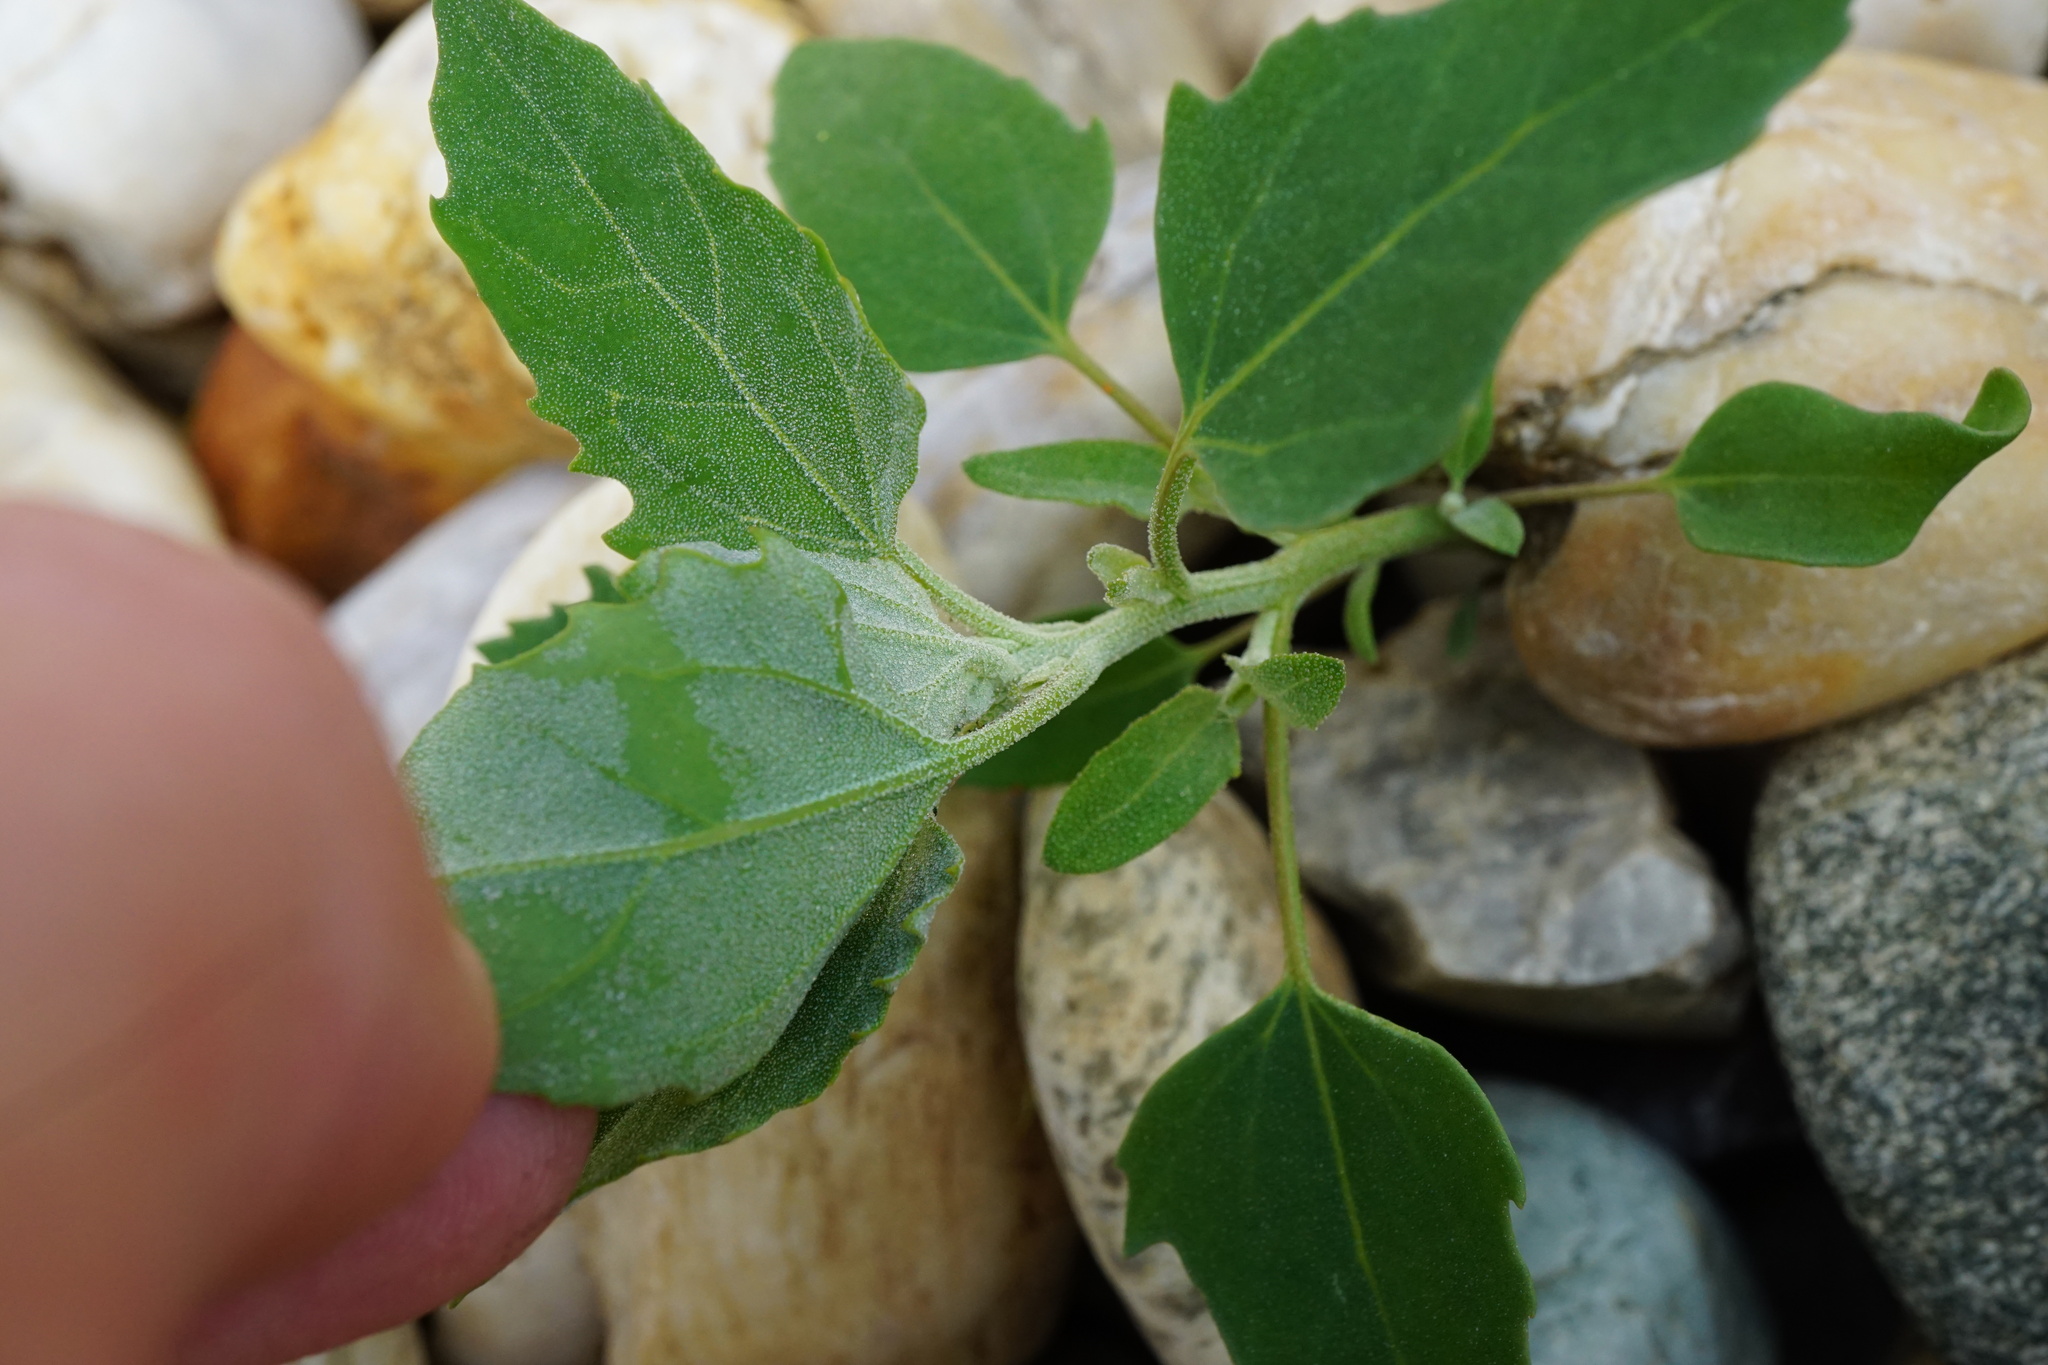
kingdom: Plantae
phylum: Tracheophyta
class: Magnoliopsida
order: Caryophyllales
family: Amaranthaceae
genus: Chenopodium
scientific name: Chenopodium album
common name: Fat-hen
